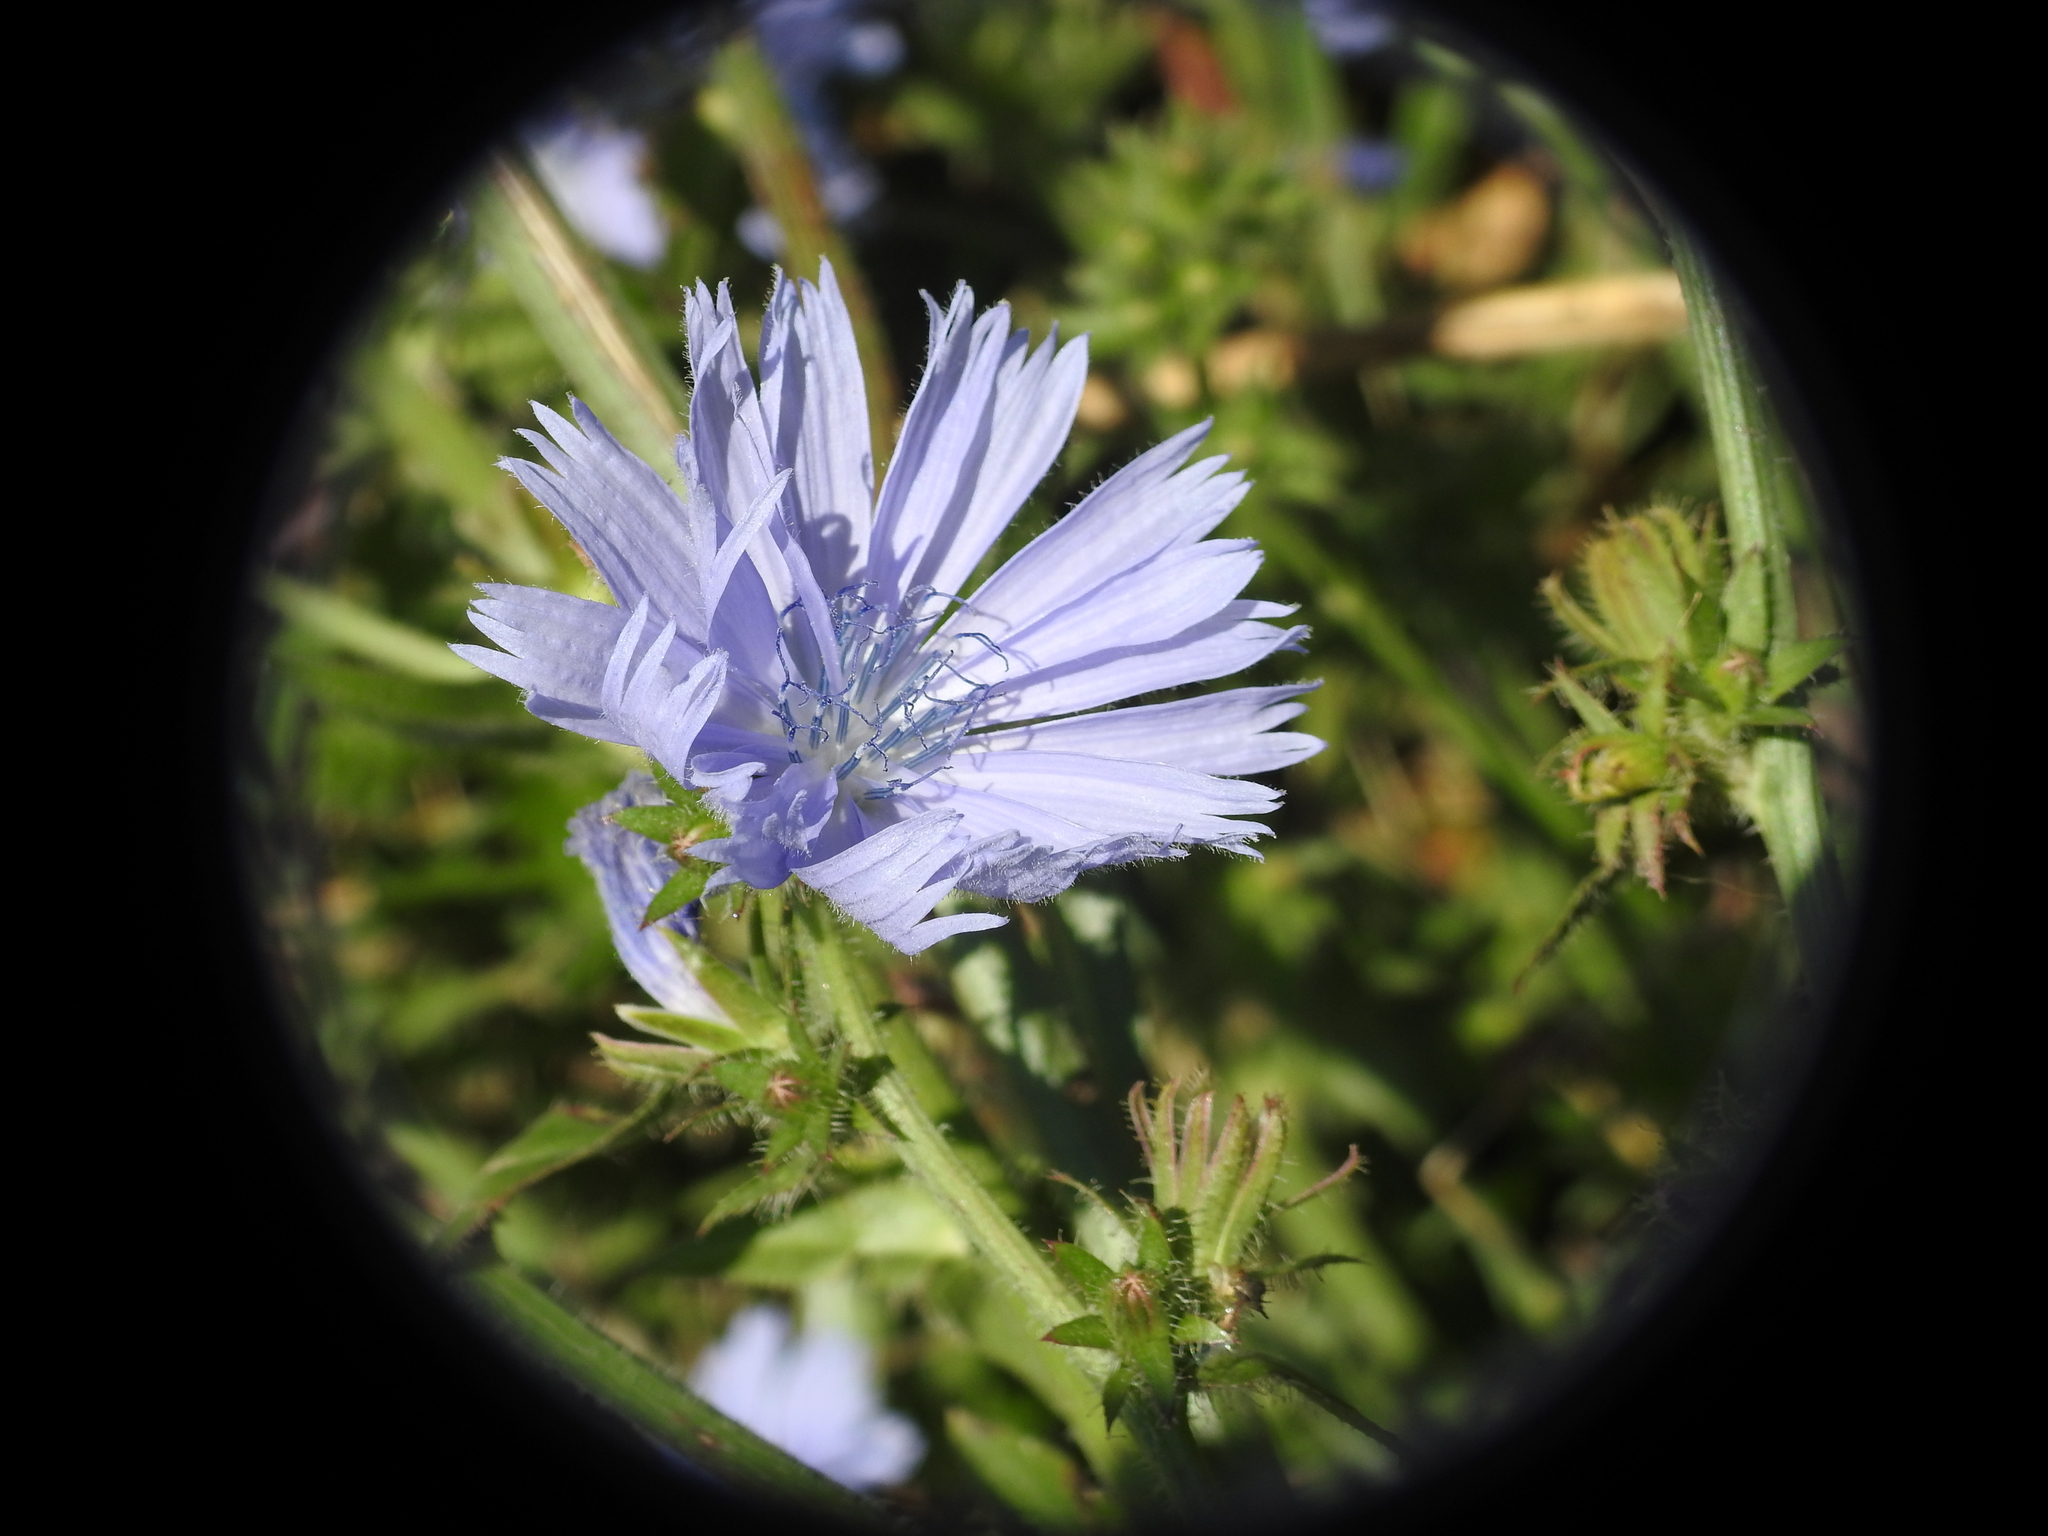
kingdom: Plantae
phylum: Tracheophyta
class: Magnoliopsida
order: Asterales
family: Asteraceae
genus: Cichorium
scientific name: Cichorium intybus
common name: Chicory
